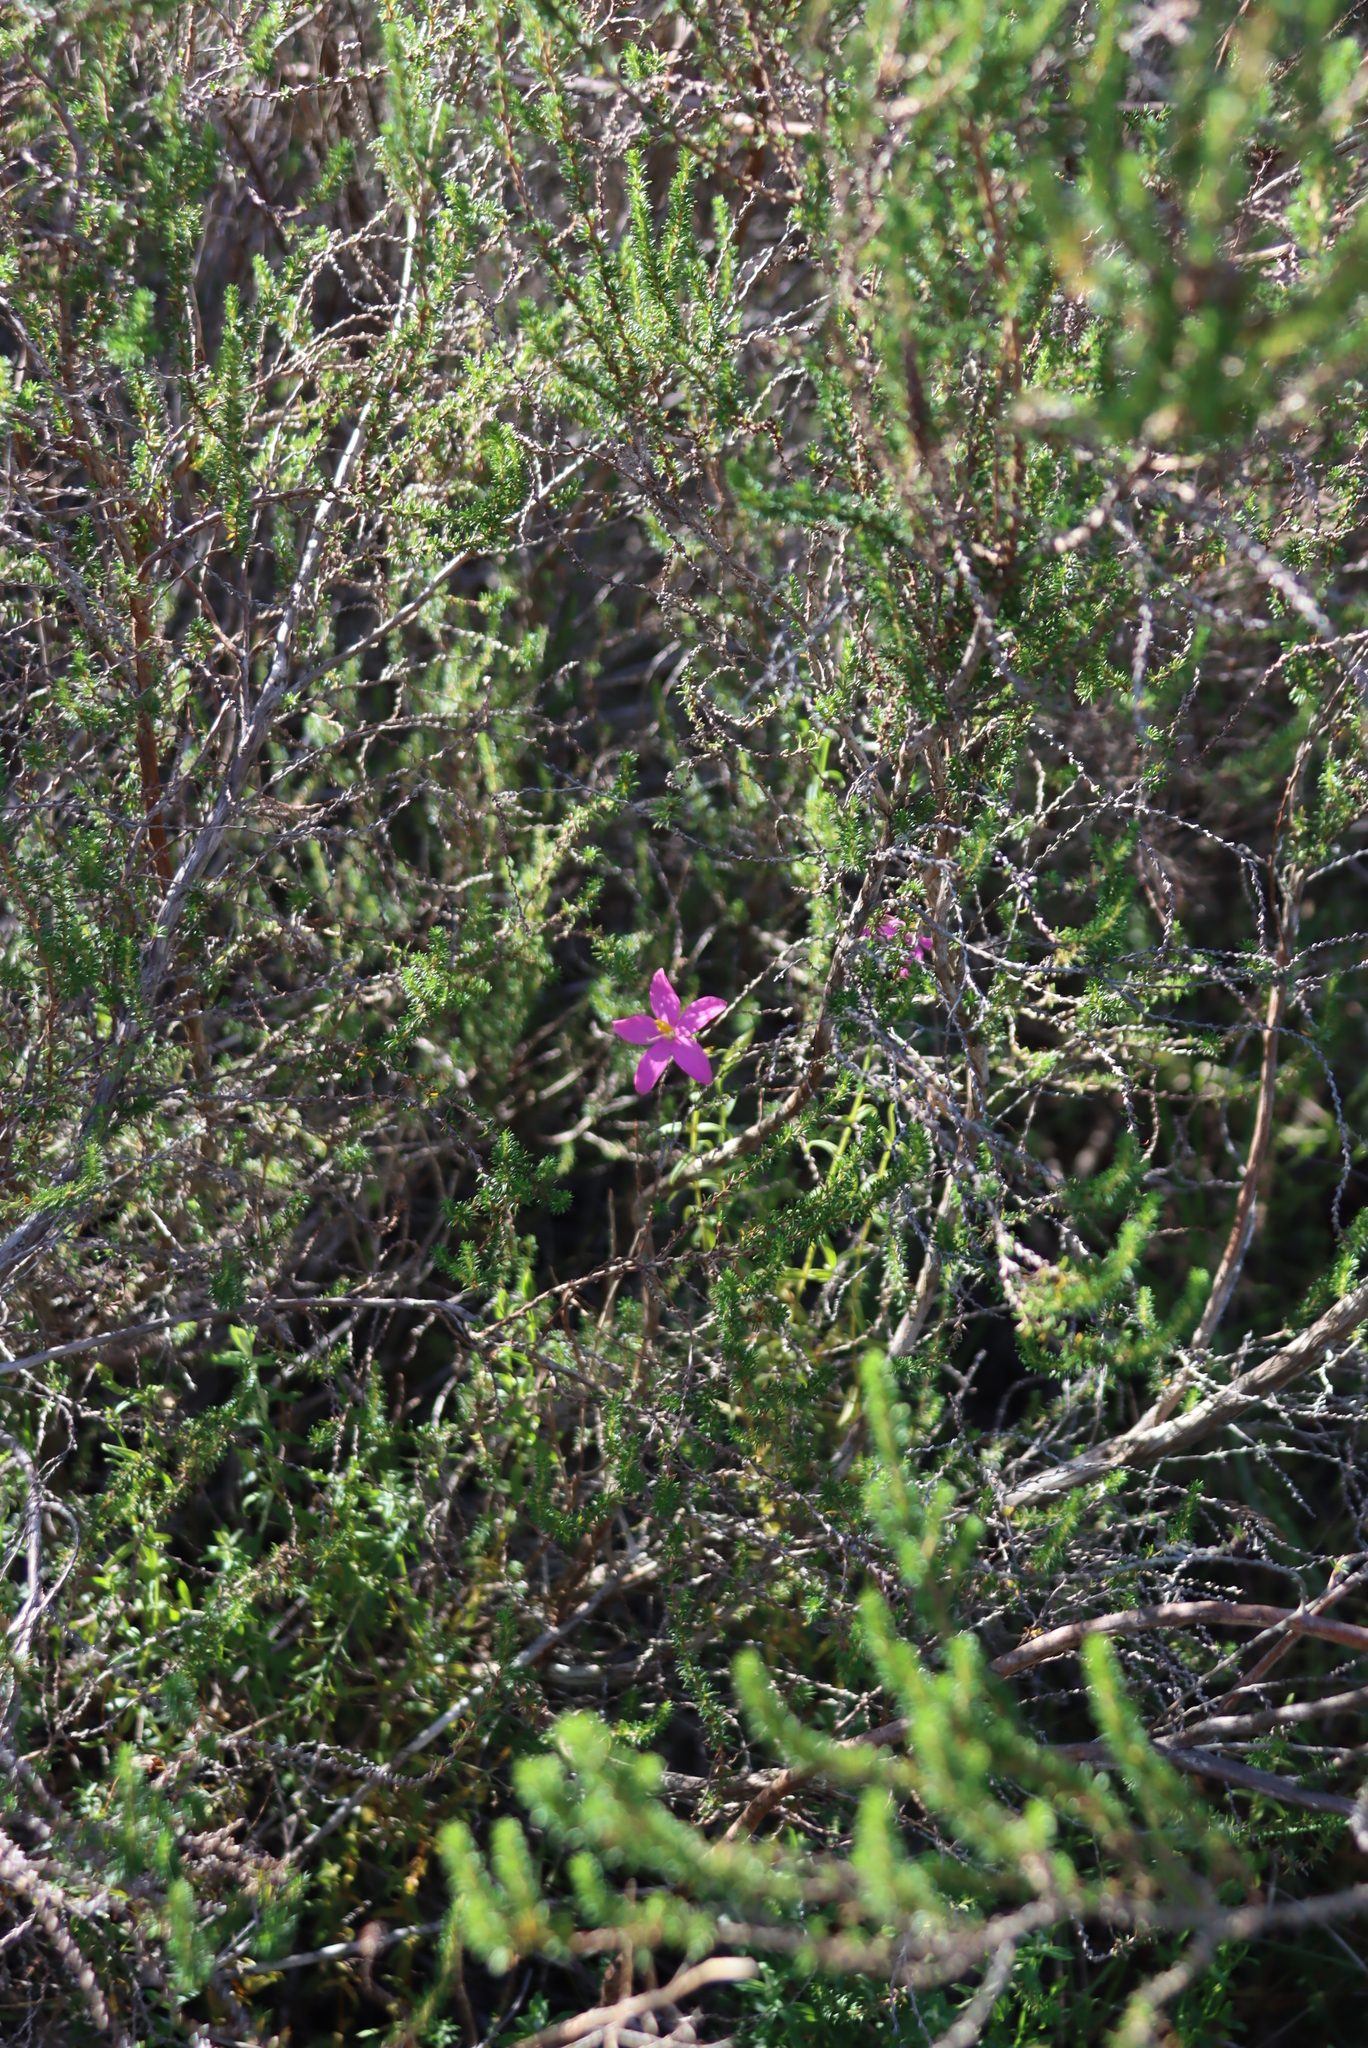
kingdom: Plantae
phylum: Tracheophyta
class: Magnoliopsida
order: Gentianales
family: Gentianaceae
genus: Chironia
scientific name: Chironia tetragona
